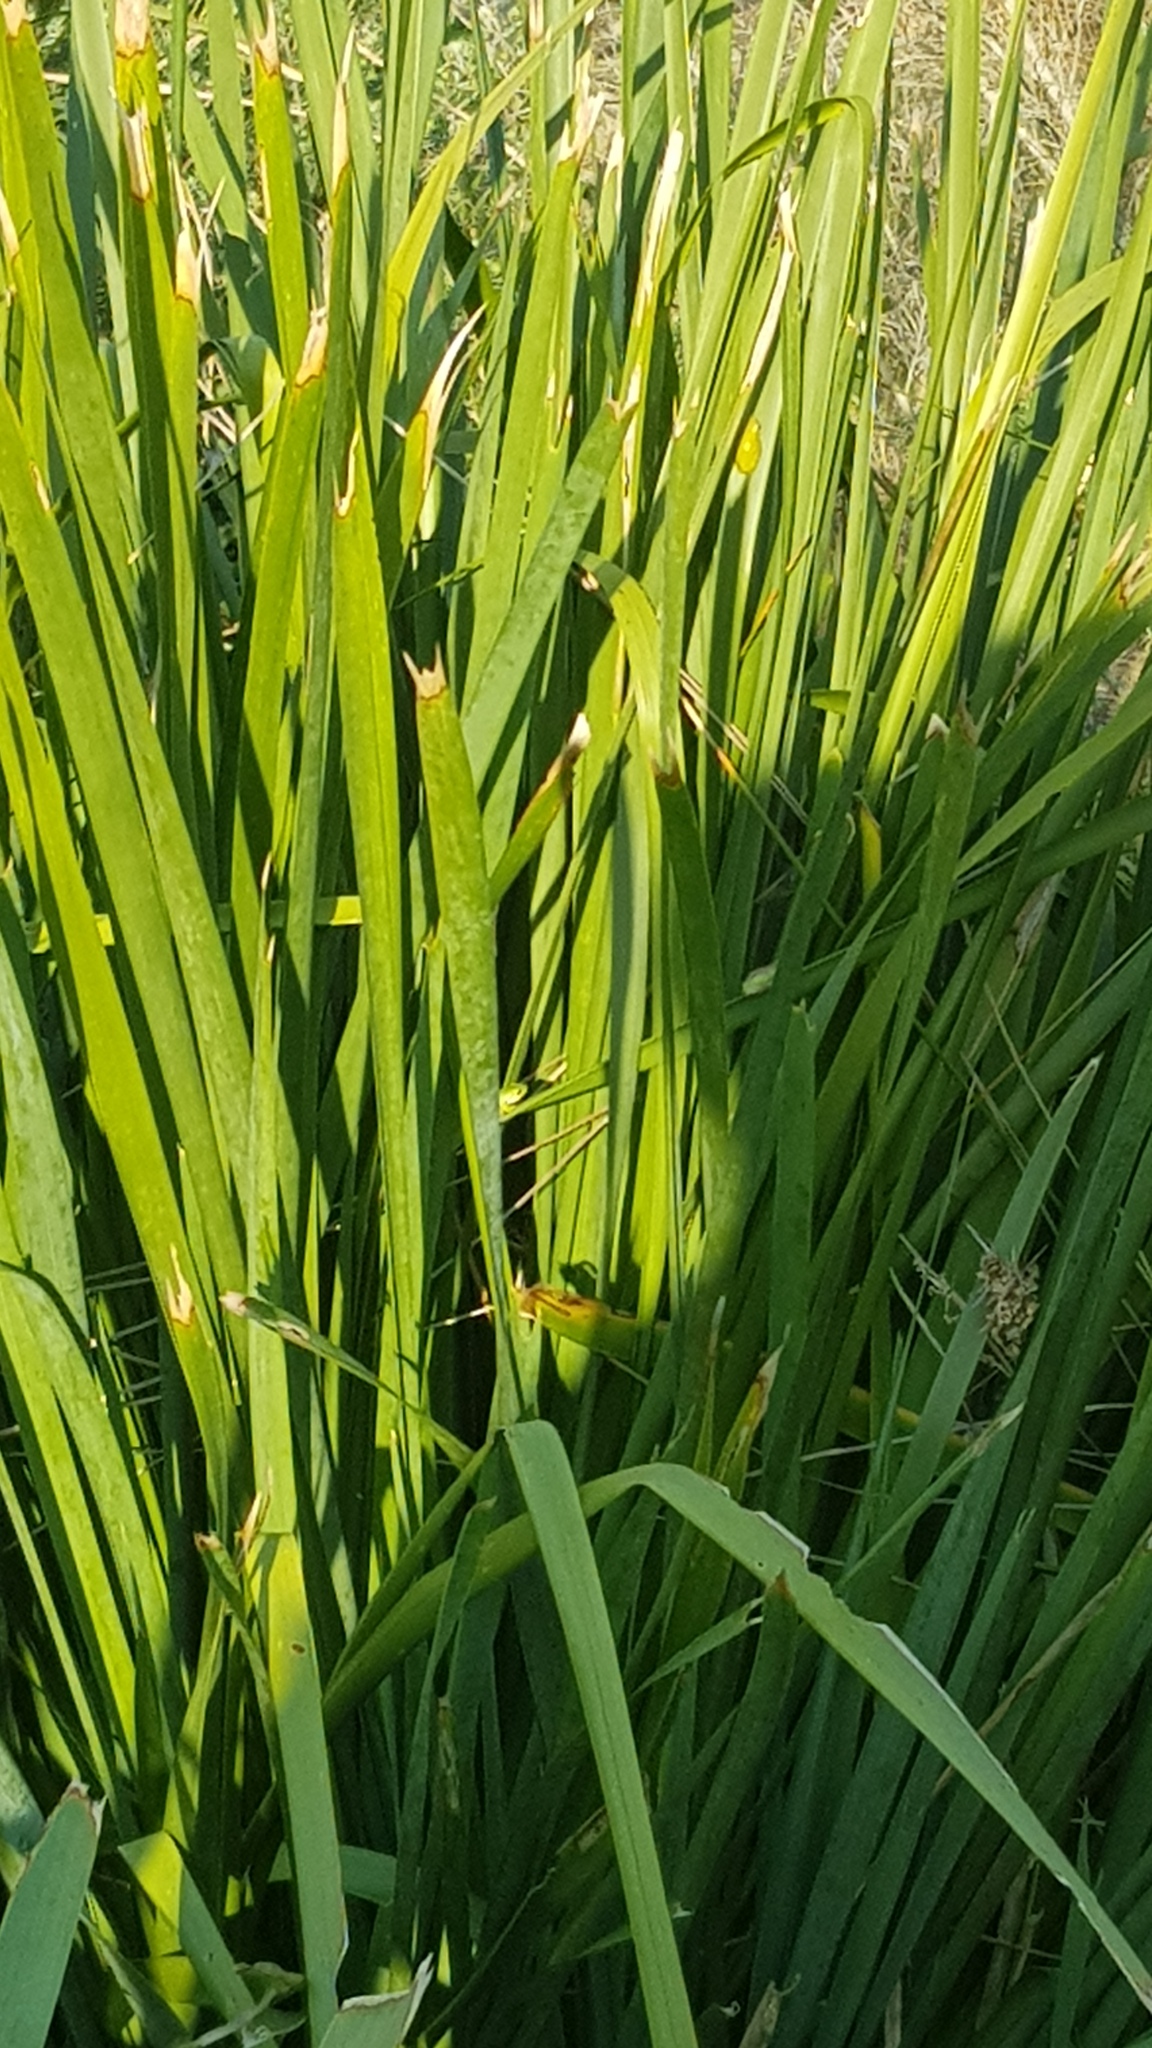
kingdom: Animalia
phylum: Chordata
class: Amphibia
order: Anura
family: Pelodryadidae
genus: Litoria
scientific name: Litoria fallax
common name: Eastern dwarf treefrog
